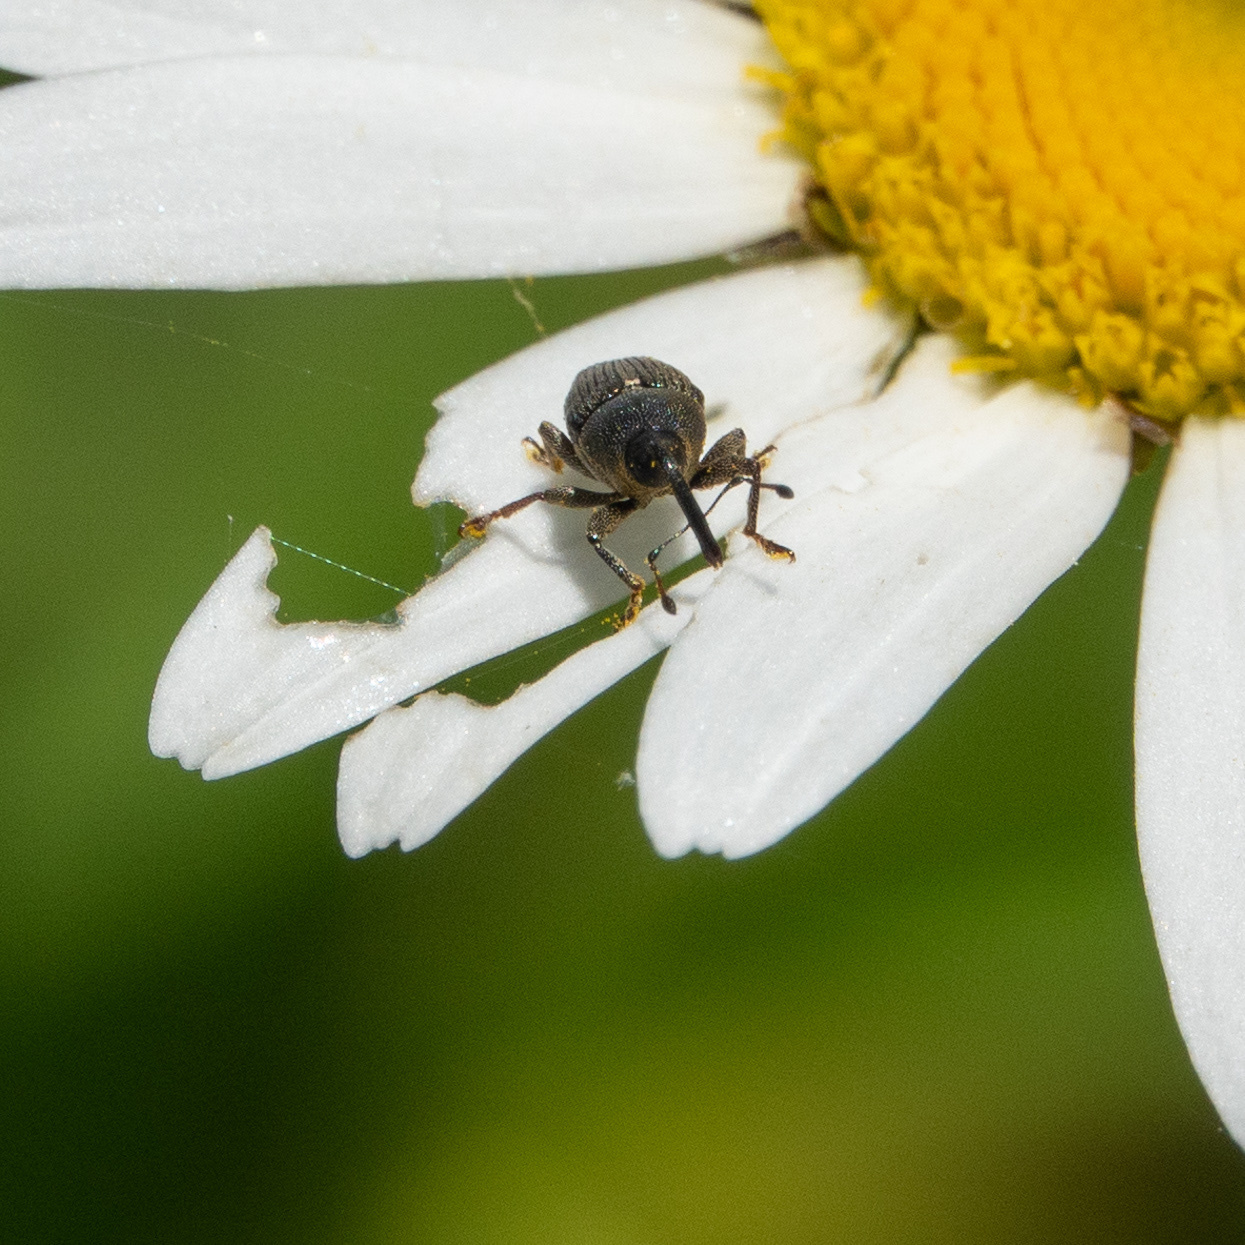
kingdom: Animalia
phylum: Arthropoda
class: Insecta
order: Coleoptera
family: Curculionidae
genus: Odontocorynus
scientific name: Odontocorynus salebrosus
